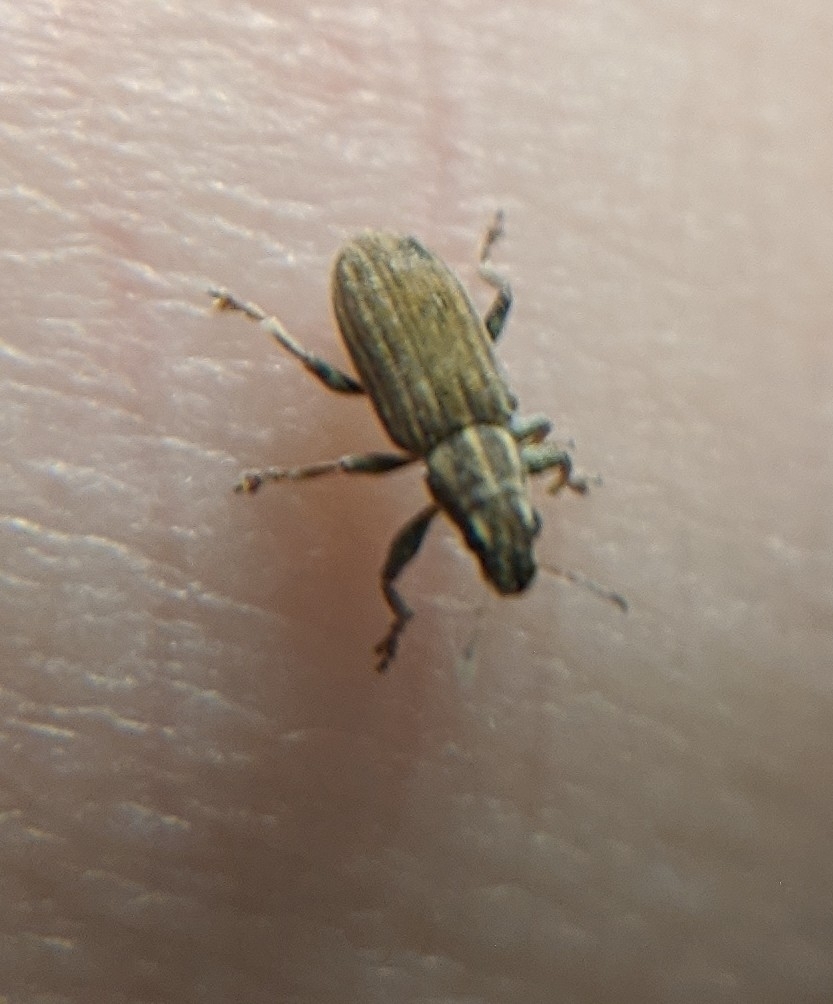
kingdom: Animalia
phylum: Arthropoda
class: Insecta
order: Coleoptera
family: Curculionidae
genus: Sitona
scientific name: Sitona lineatus
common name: Weevil
